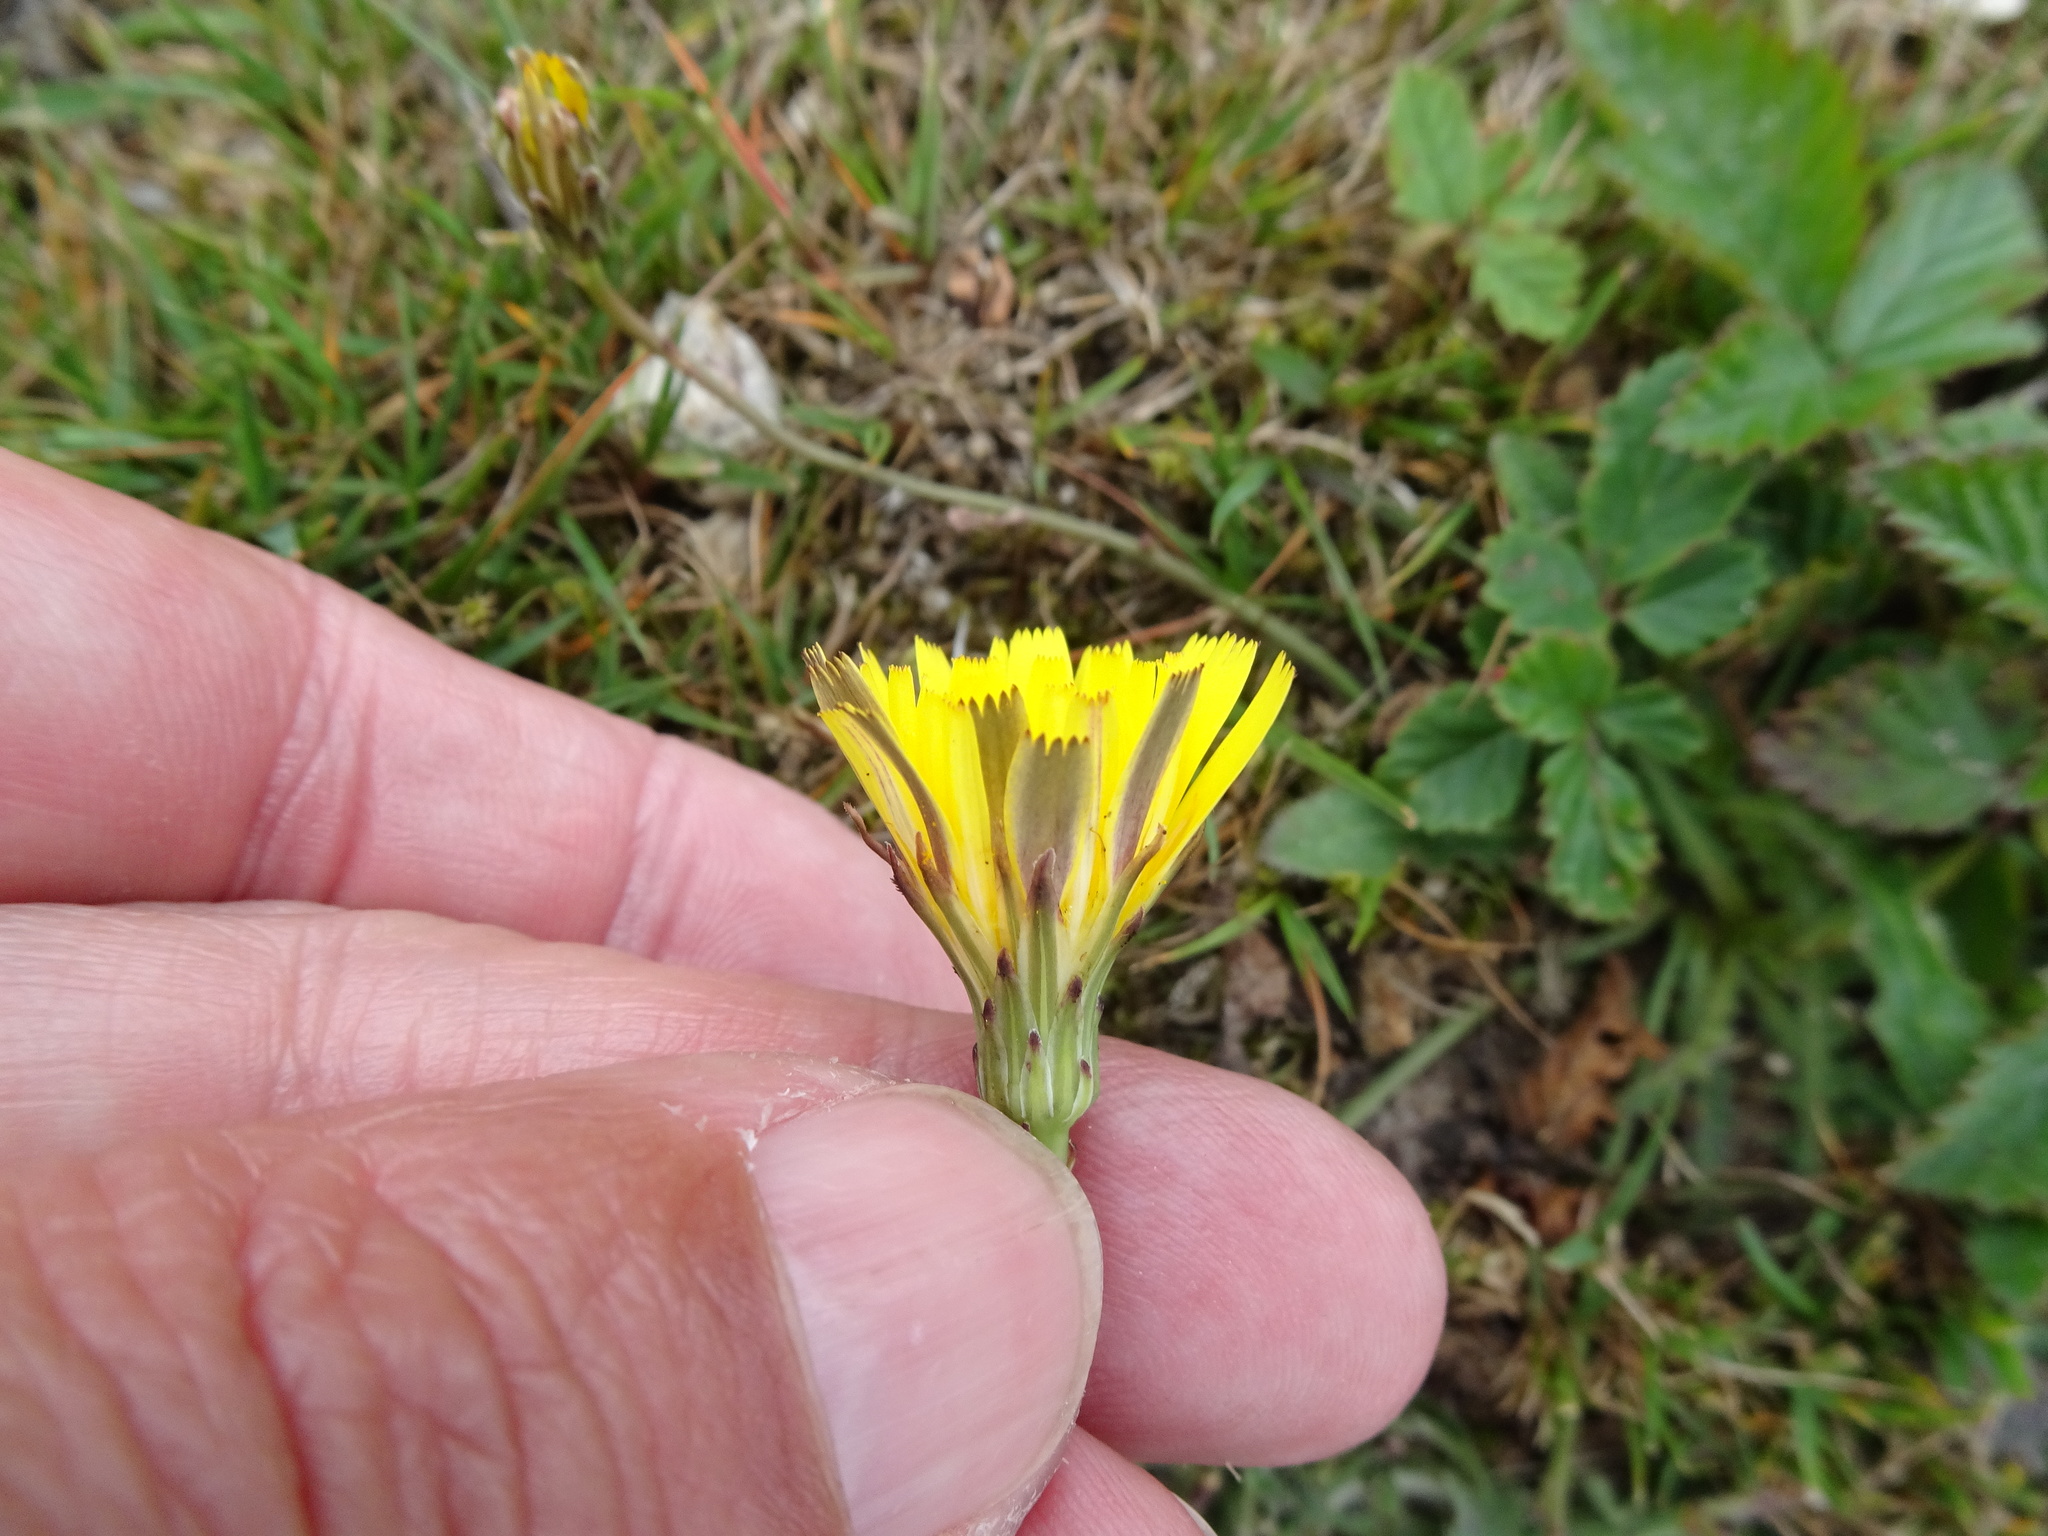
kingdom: Plantae
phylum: Tracheophyta
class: Magnoliopsida
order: Asterales
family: Asteraceae
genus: Hypochaeris
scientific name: Hypochaeris radicata
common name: Flatweed
